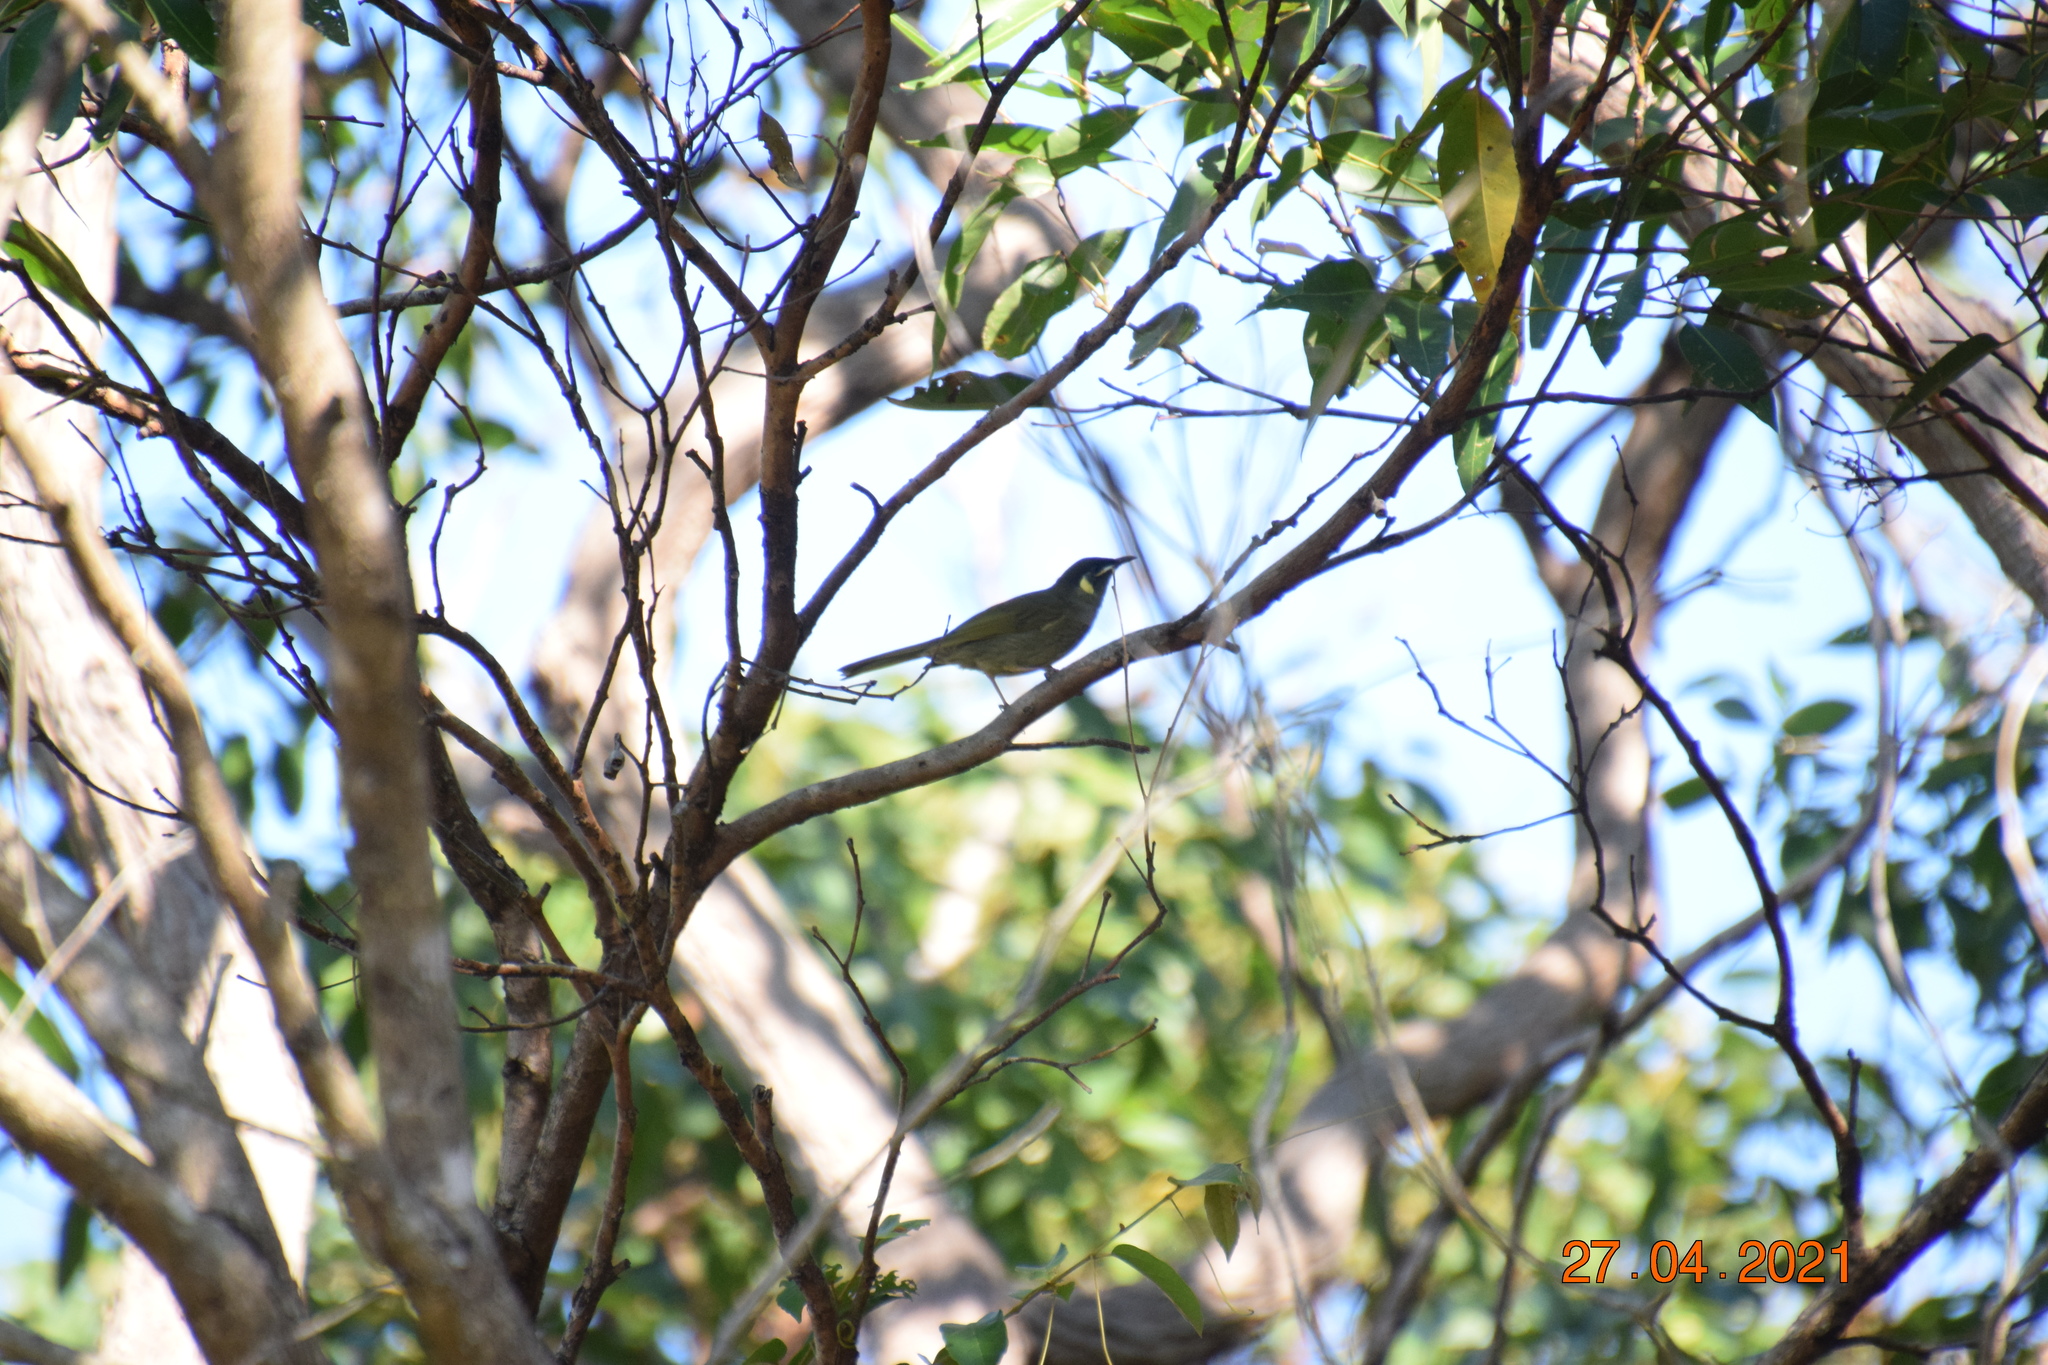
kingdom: Animalia
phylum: Chordata
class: Aves
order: Passeriformes
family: Meliphagidae
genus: Meliphaga
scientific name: Meliphaga lewinii
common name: Lewin's honeyeater
